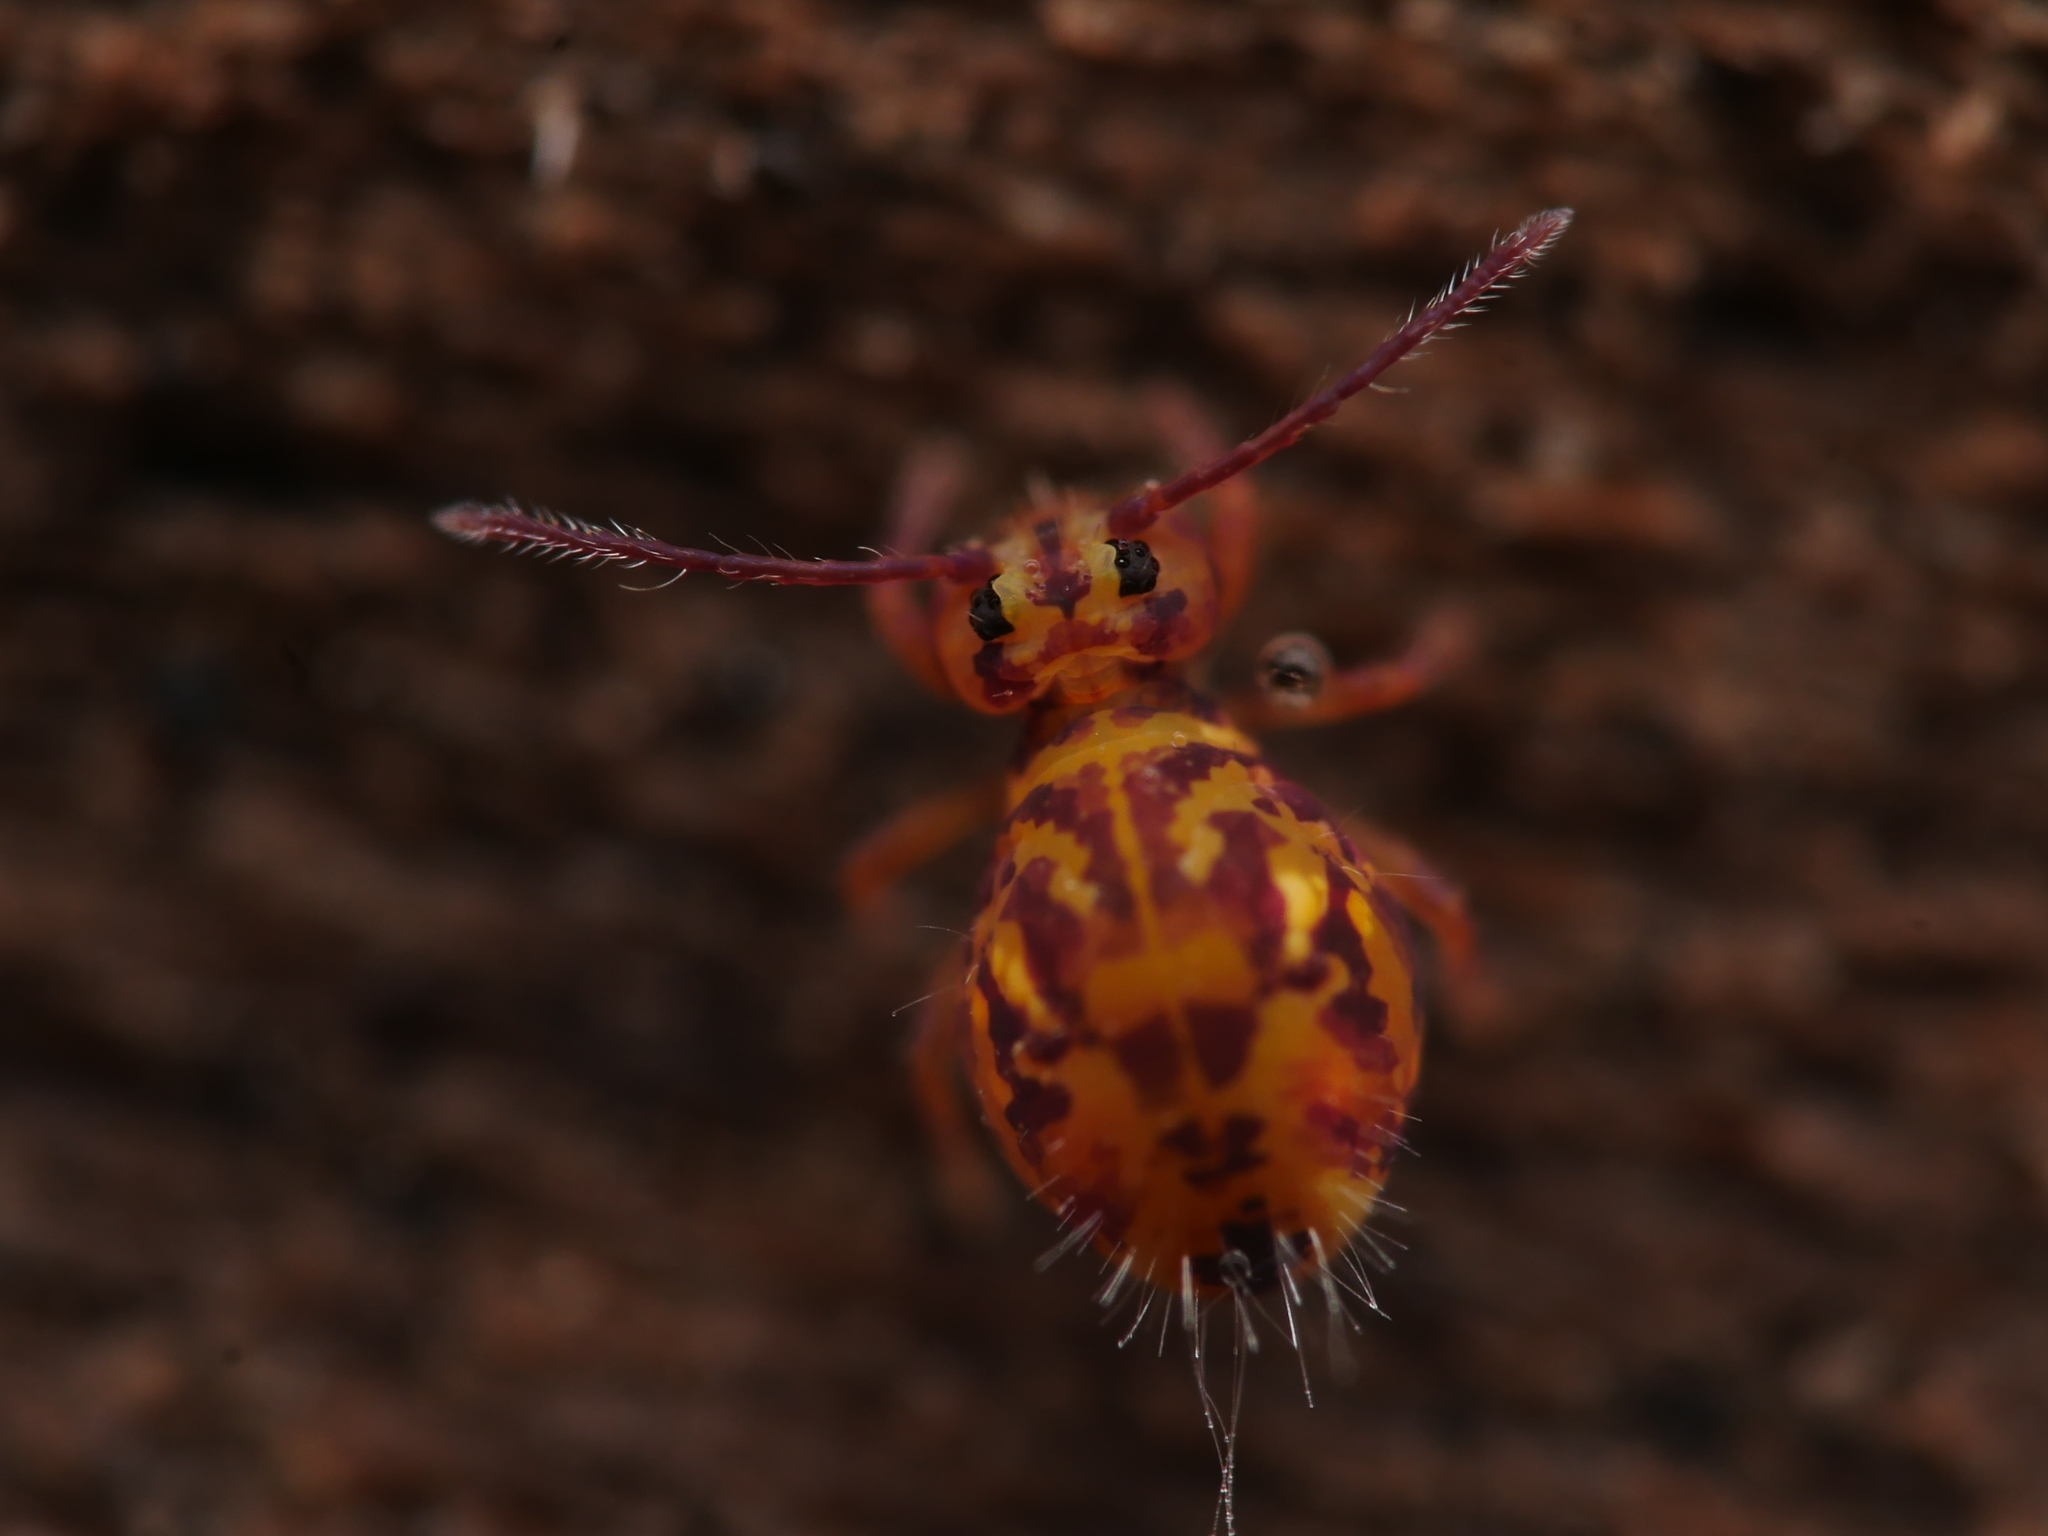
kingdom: Animalia
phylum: Arthropoda
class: Collembola
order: Symphypleona
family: Dicyrtomidae
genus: Dicyrtomina
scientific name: Dicyrtomina ornata
